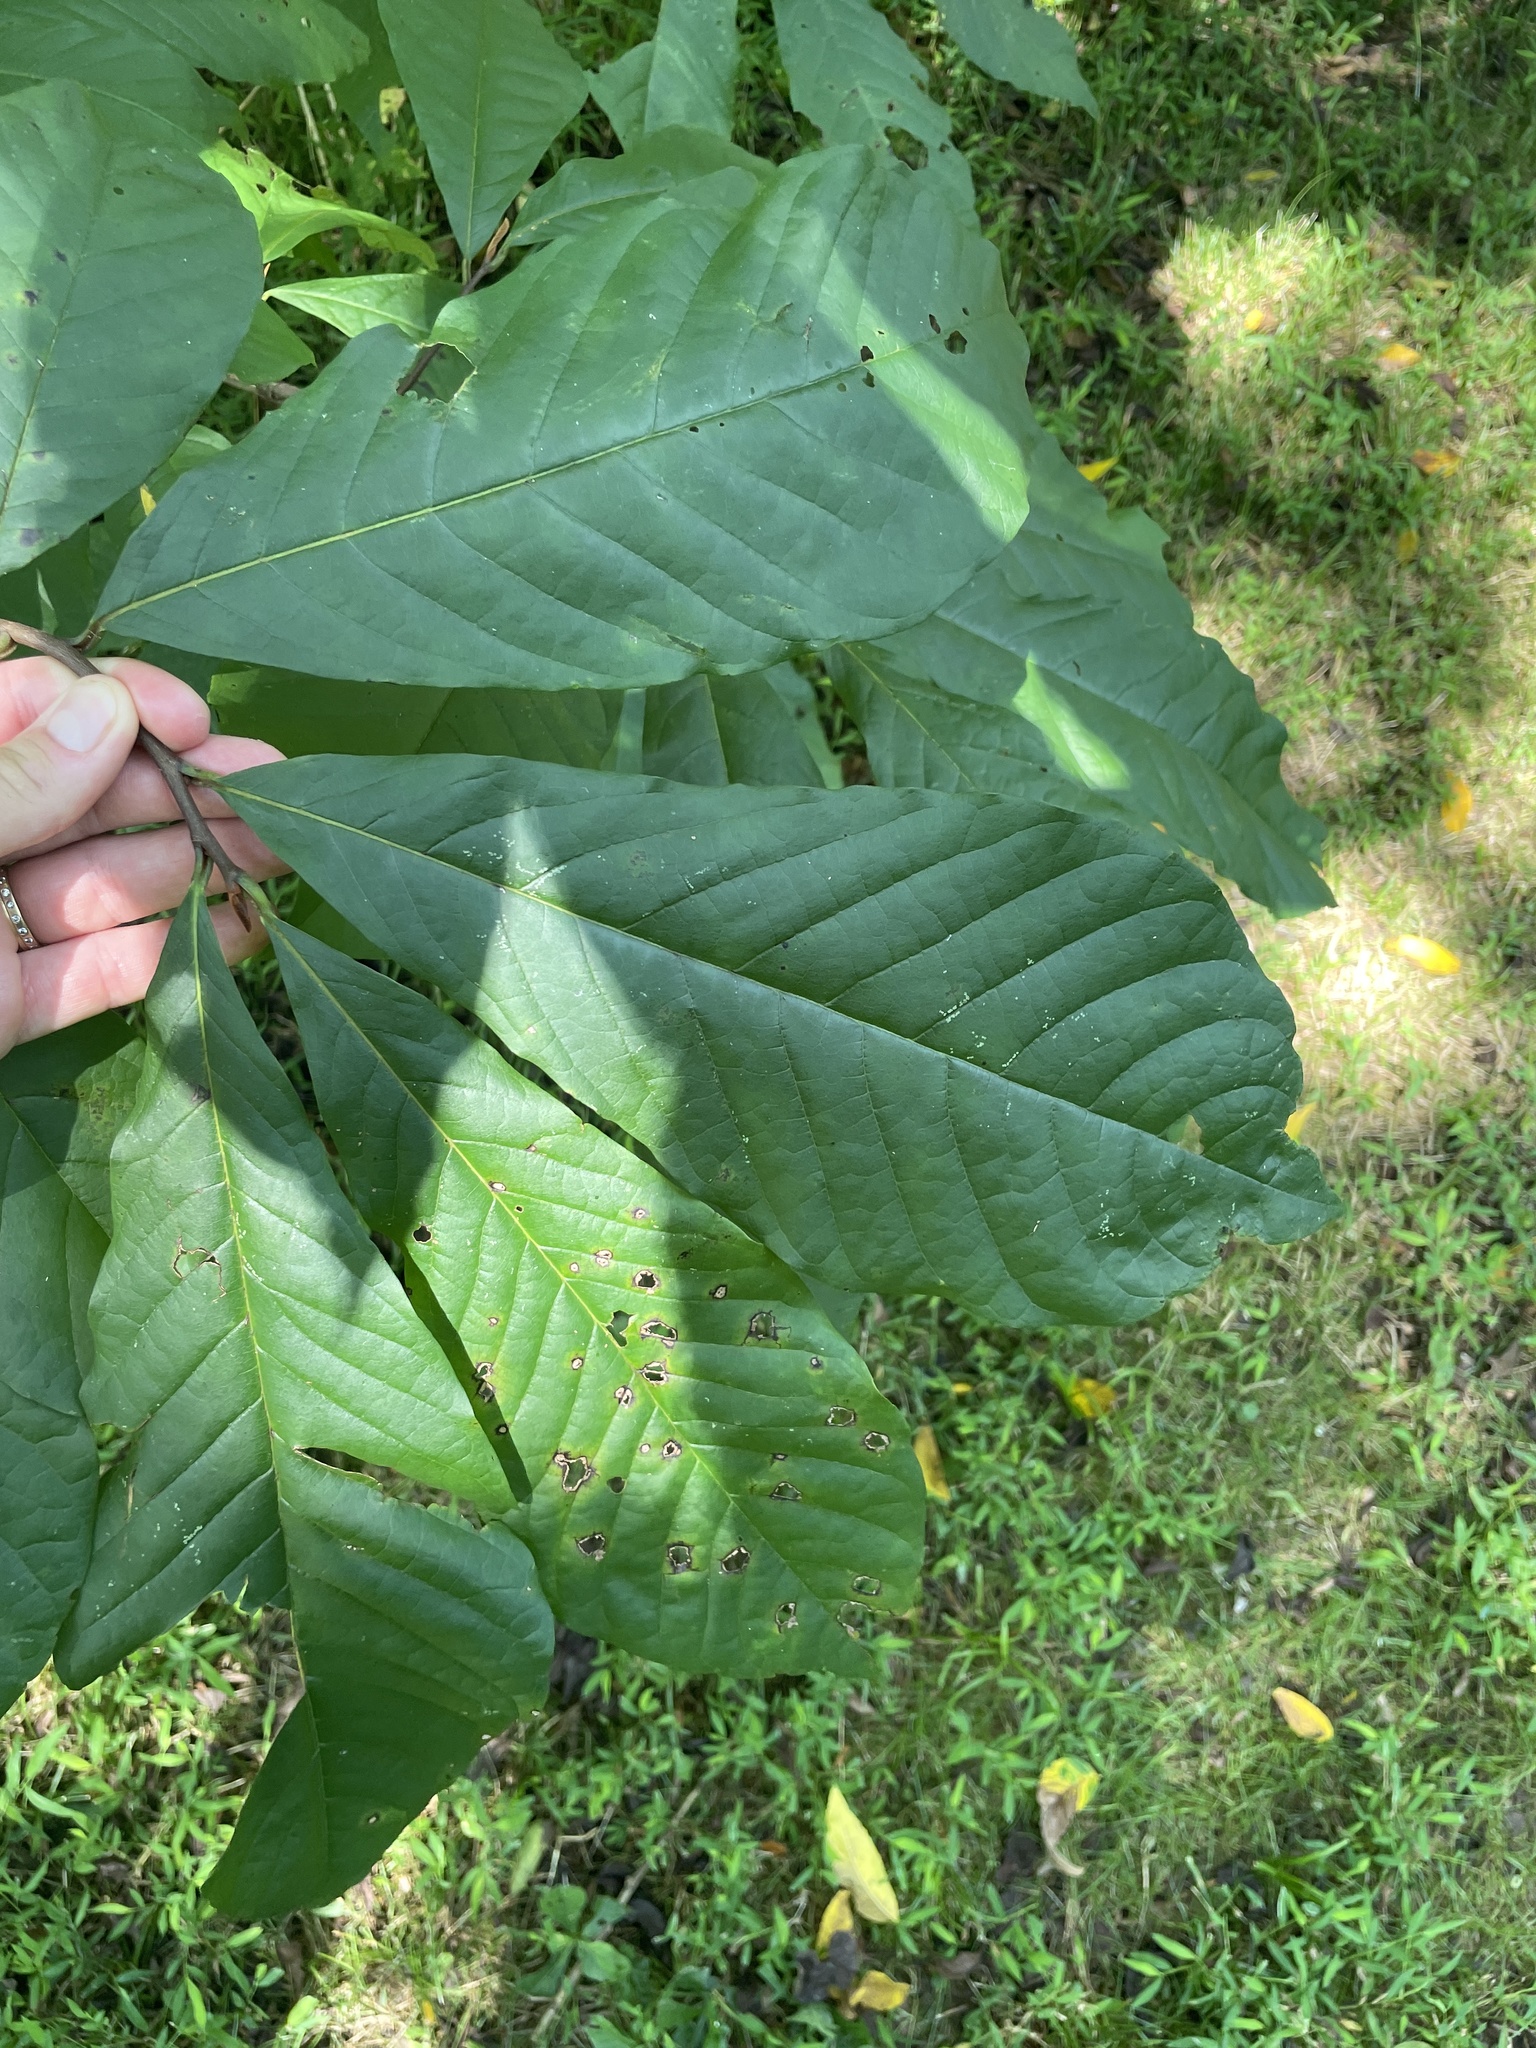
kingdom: Plantae
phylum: Tracheophyta
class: Magnoliopsida
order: Magnoliales
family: Annonaceae
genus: Asimina
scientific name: Asimina triloba
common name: Dog-banana
